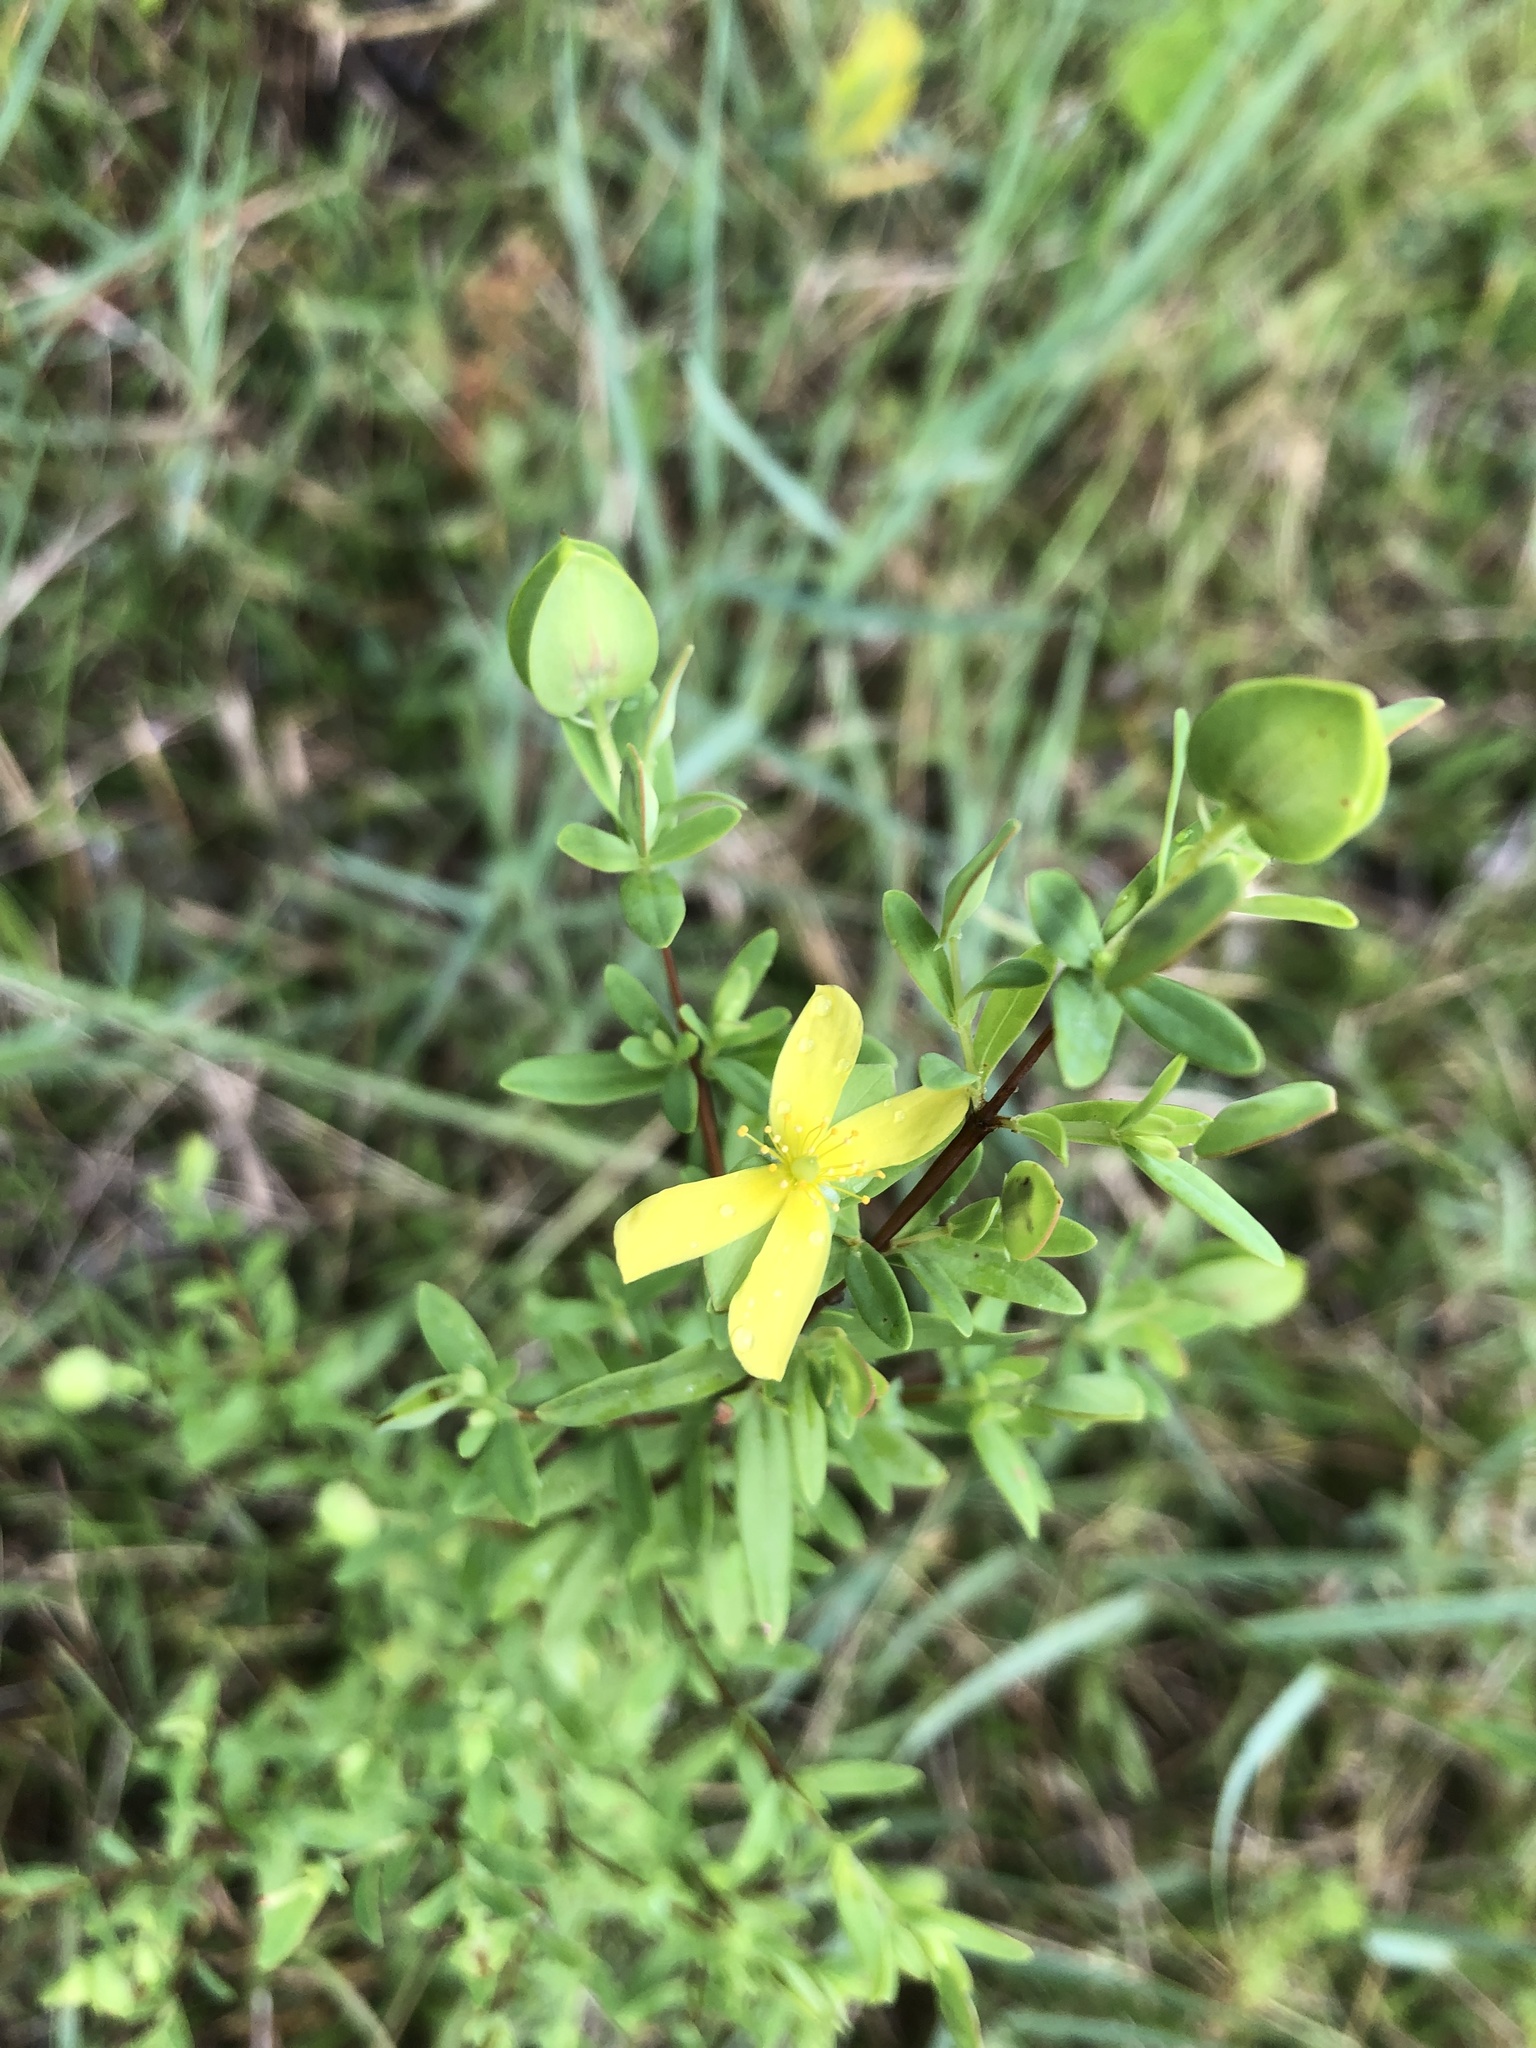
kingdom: Plantae
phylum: Tracheophyta
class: Magnoliopsida
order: Malpighiales
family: Hypericaceae
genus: Hypericum
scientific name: Hypericum hypericoides
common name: St. andrew's cross
